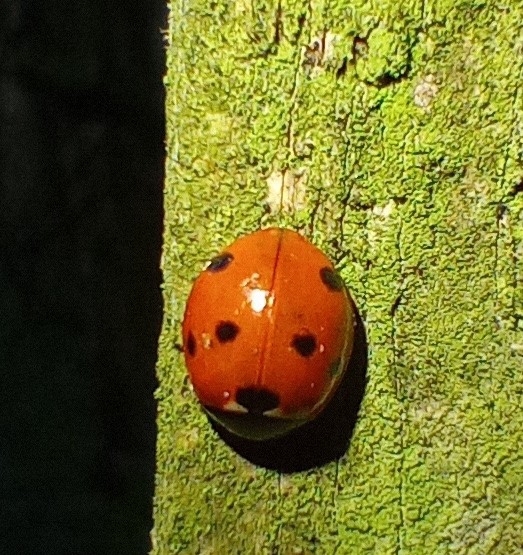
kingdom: Animalia
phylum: Arthropoda
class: Insecta
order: Coleoptera
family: Coccinellidae
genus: Coccinella
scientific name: Coccinella septempunctata
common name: Sevenspotted lady beetle
